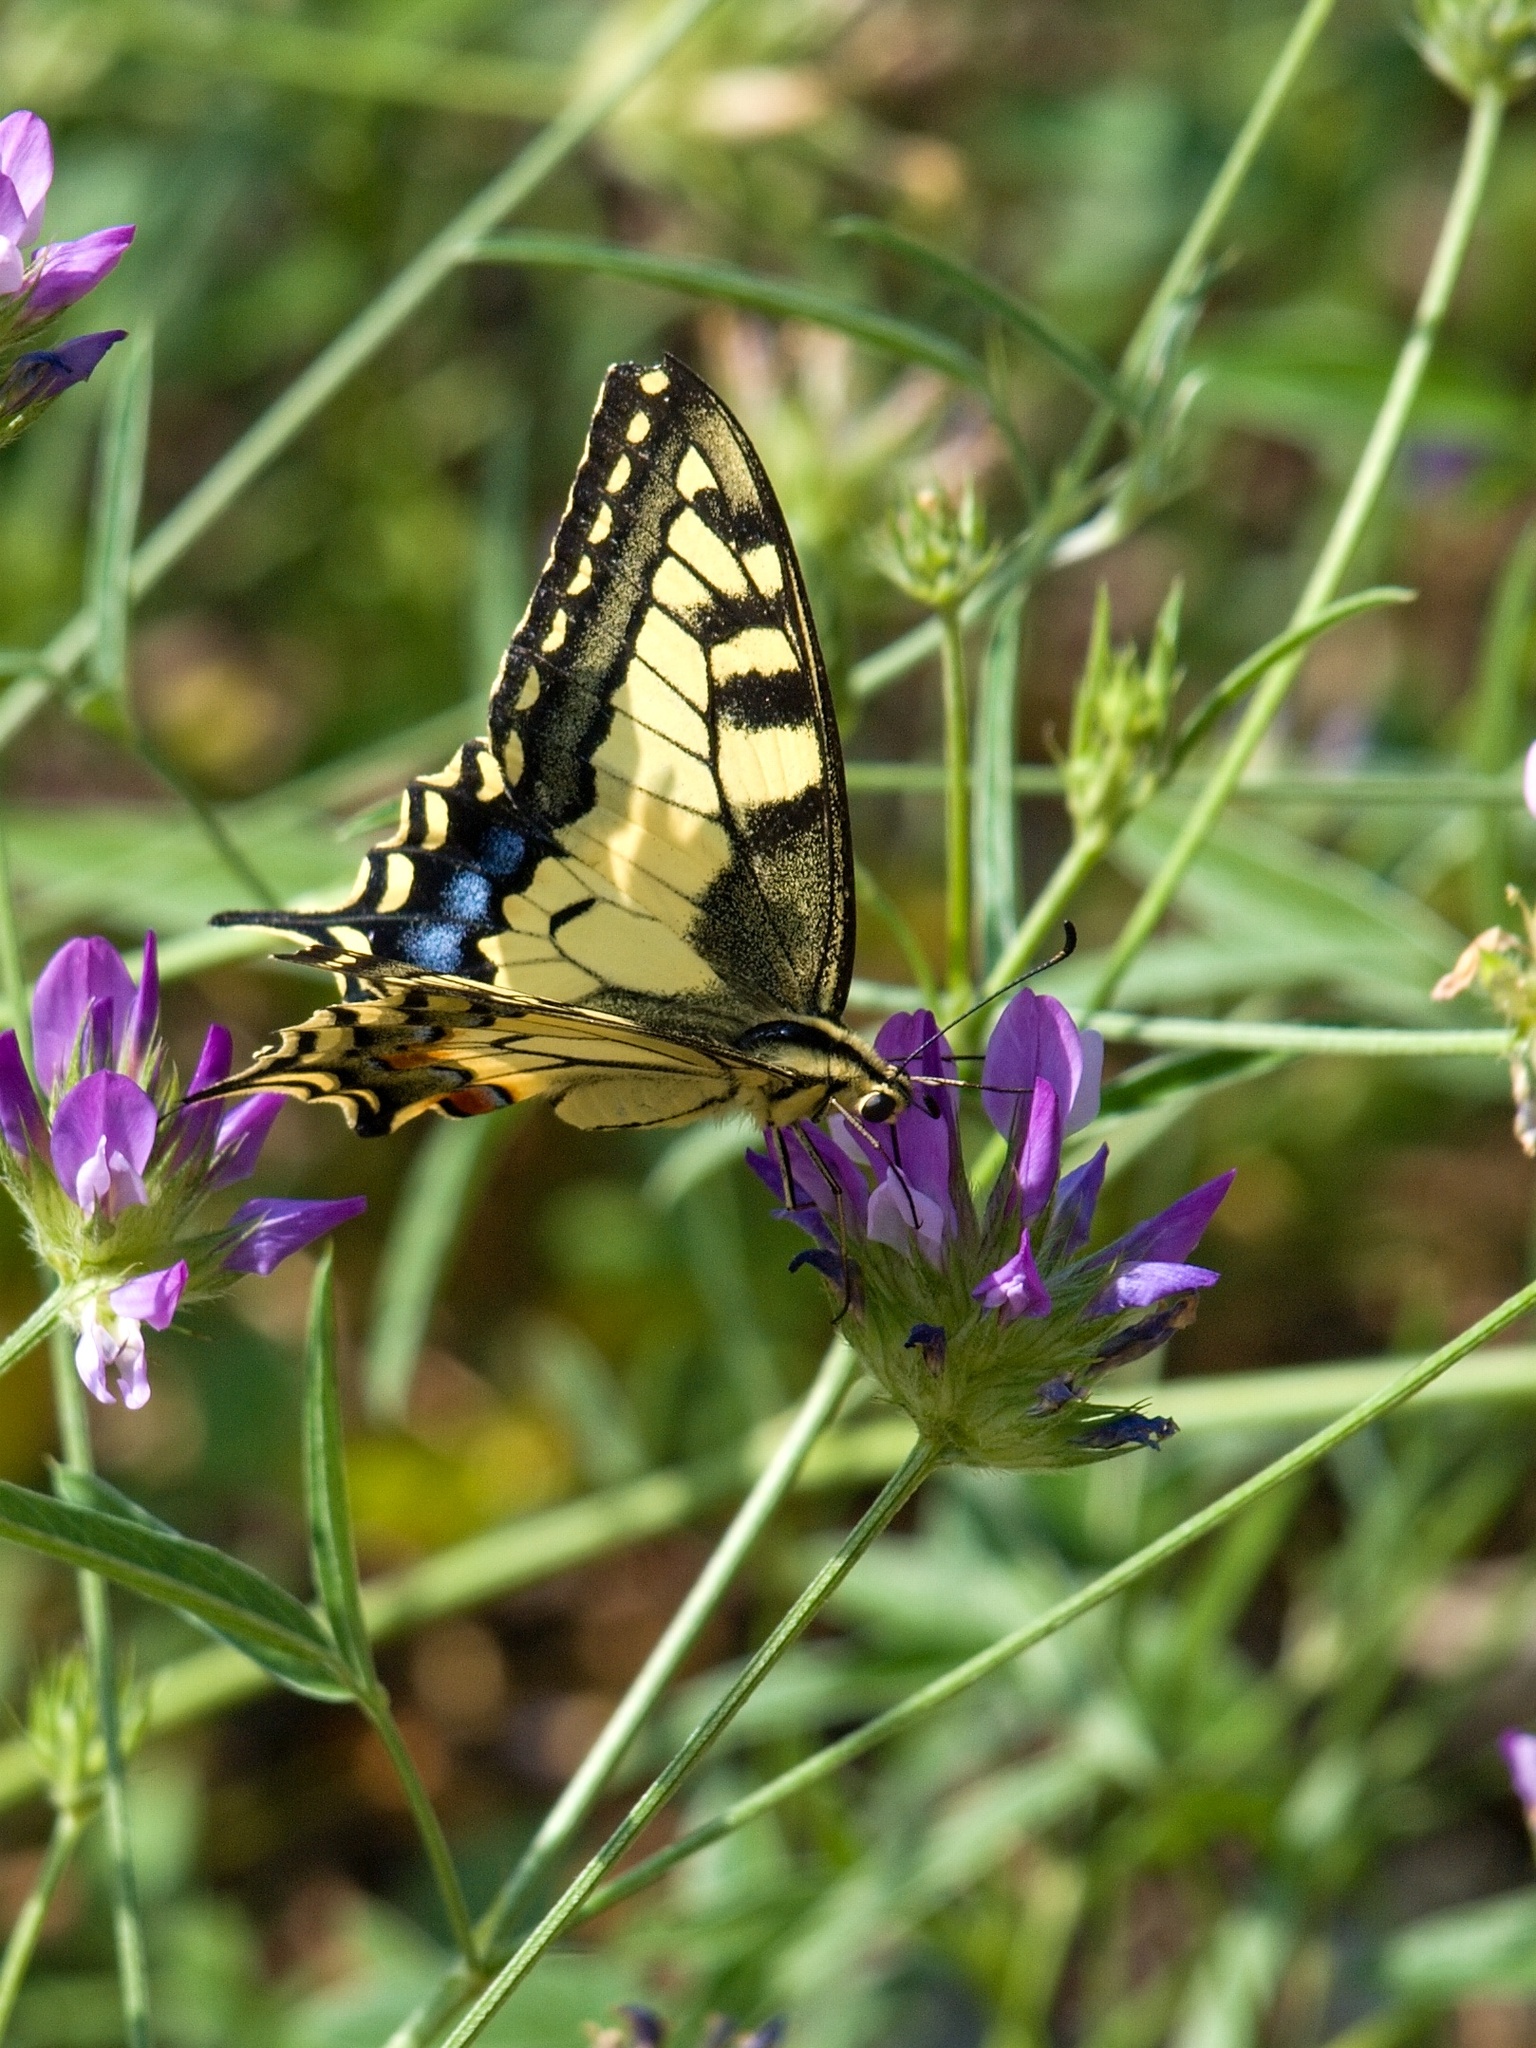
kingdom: Animalia
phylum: Arthropoda
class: Insecta
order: Lepidoptera
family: Papilionidae
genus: Papilio
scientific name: Papilio machaon
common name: Swallowtail
